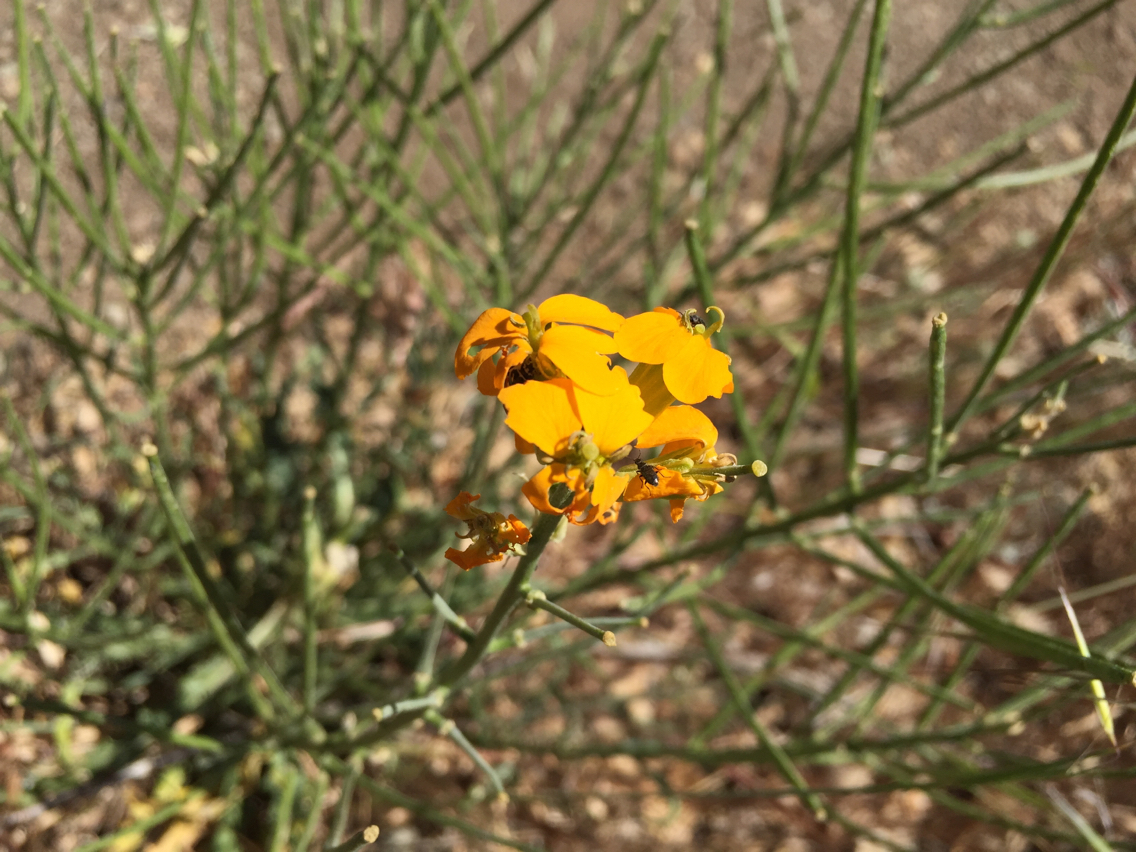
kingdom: Plantae
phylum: Tracheophyta
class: Magnoliopsida
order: Brassicales
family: Brassicaceae
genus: Erysimum
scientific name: Erysimum capitatum
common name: Western wallflower
